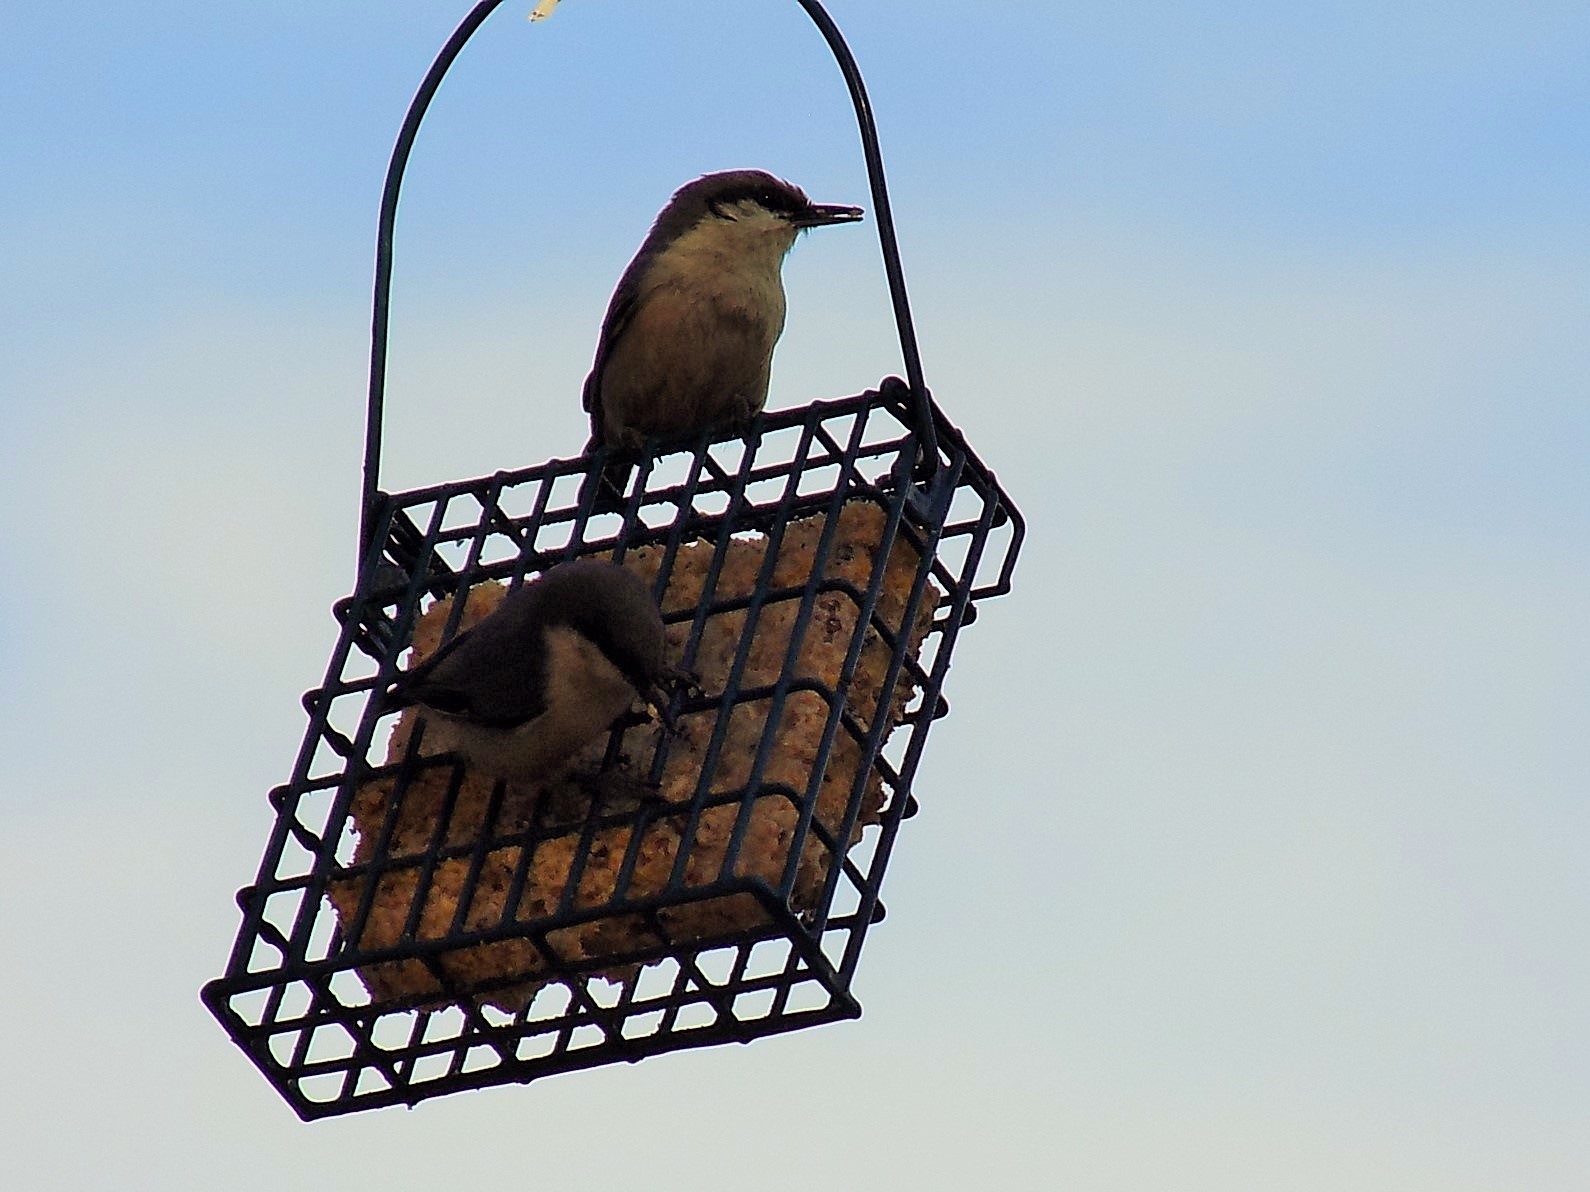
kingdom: Animalia
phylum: Chordata
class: Aves
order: Passeriformes
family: Sittidae
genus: Sitta
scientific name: Sitta pygmaea
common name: Pygmy nuthatch
